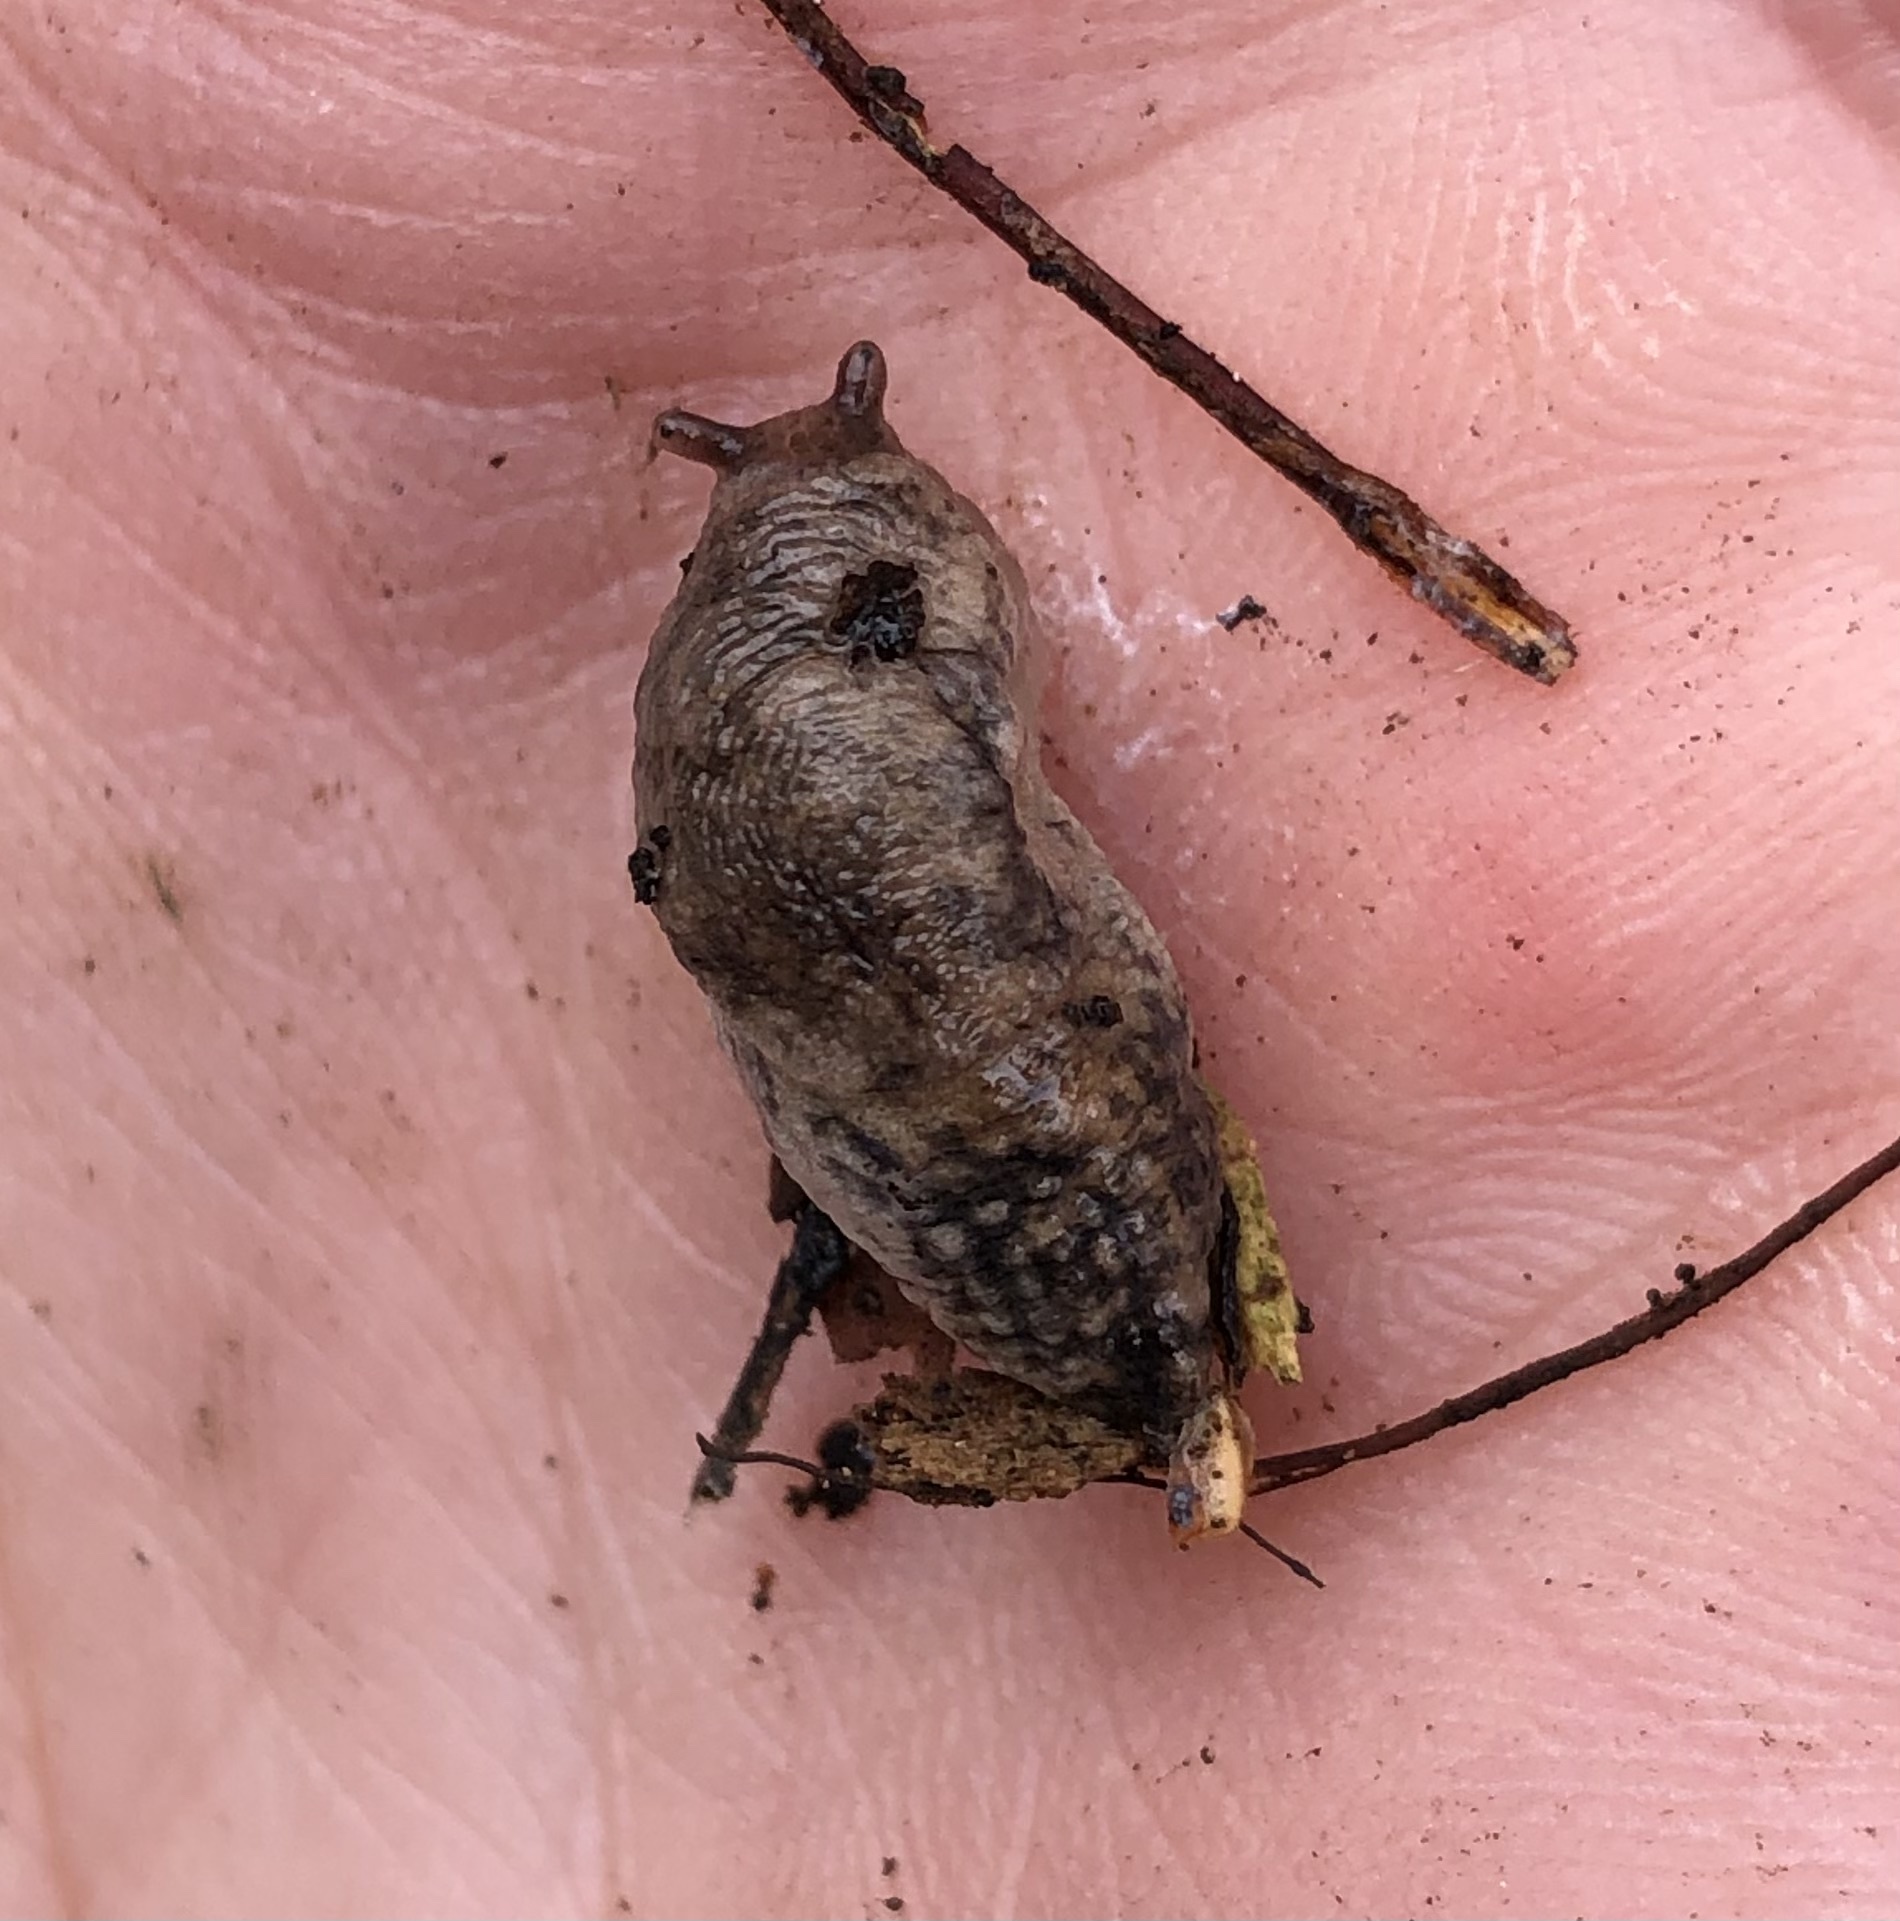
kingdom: Animalia
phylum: Mollusca
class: Gastropoda
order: Stylommatophora
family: Agriolimacidae
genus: Deroceras
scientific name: Deroceras reticulatum
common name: Gray field slug
